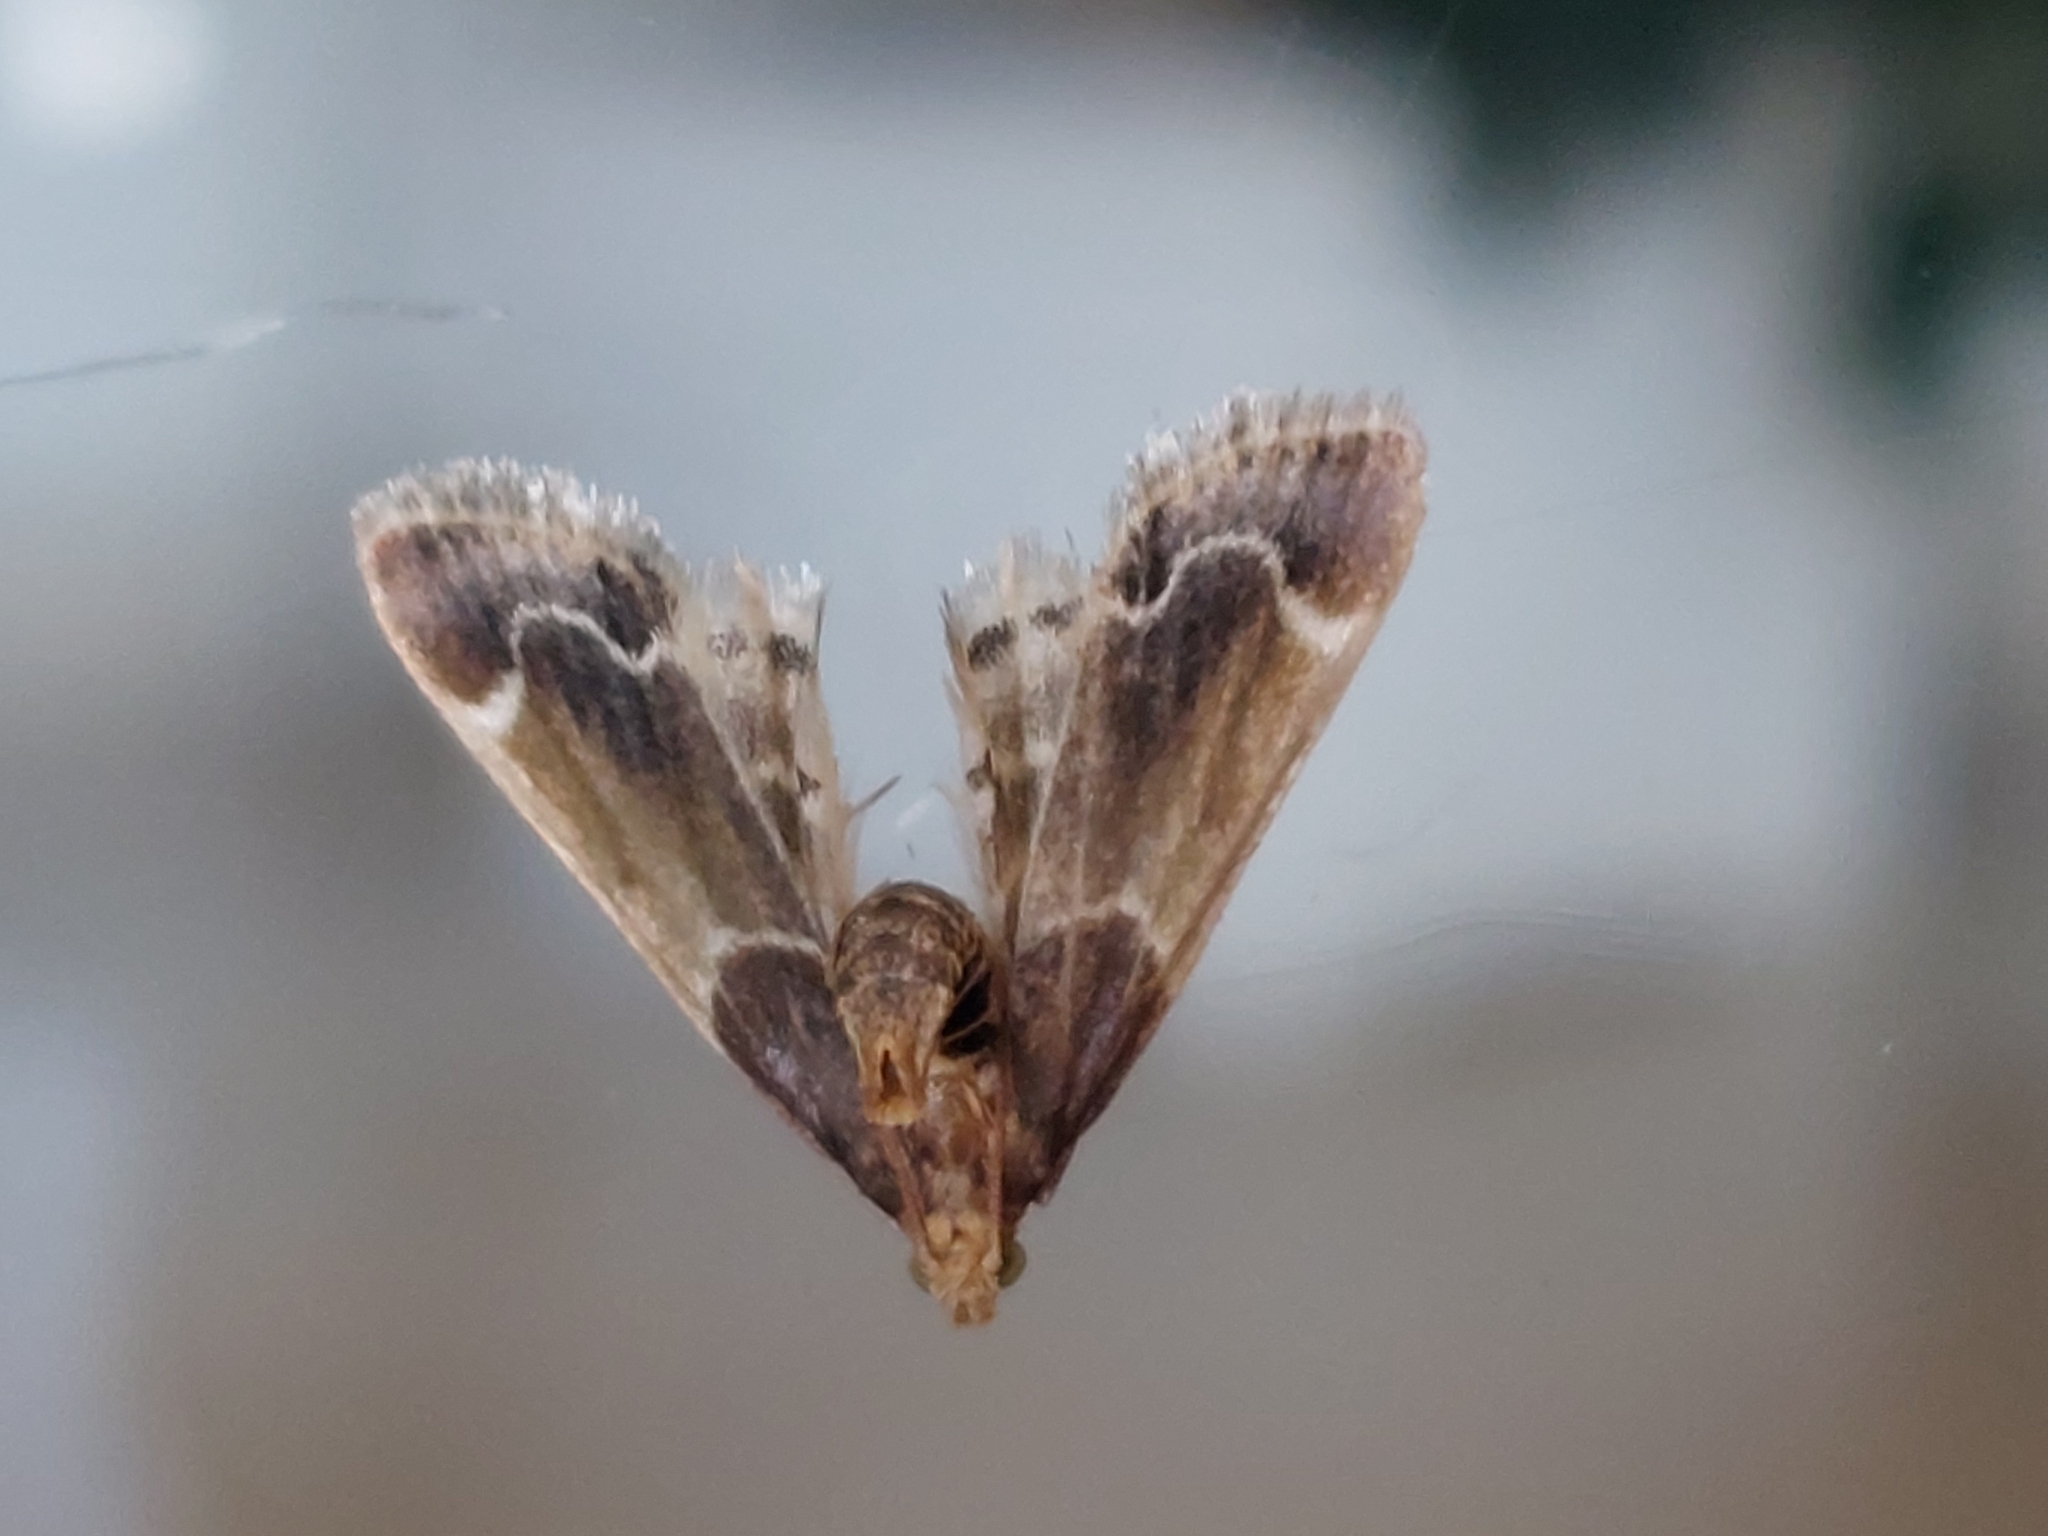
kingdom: Animalia
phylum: Arthropoda
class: Insecta
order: Lepidoptera
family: Pyralidae
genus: Pyralis
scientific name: Pyralis farinalis
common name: Meal moth
